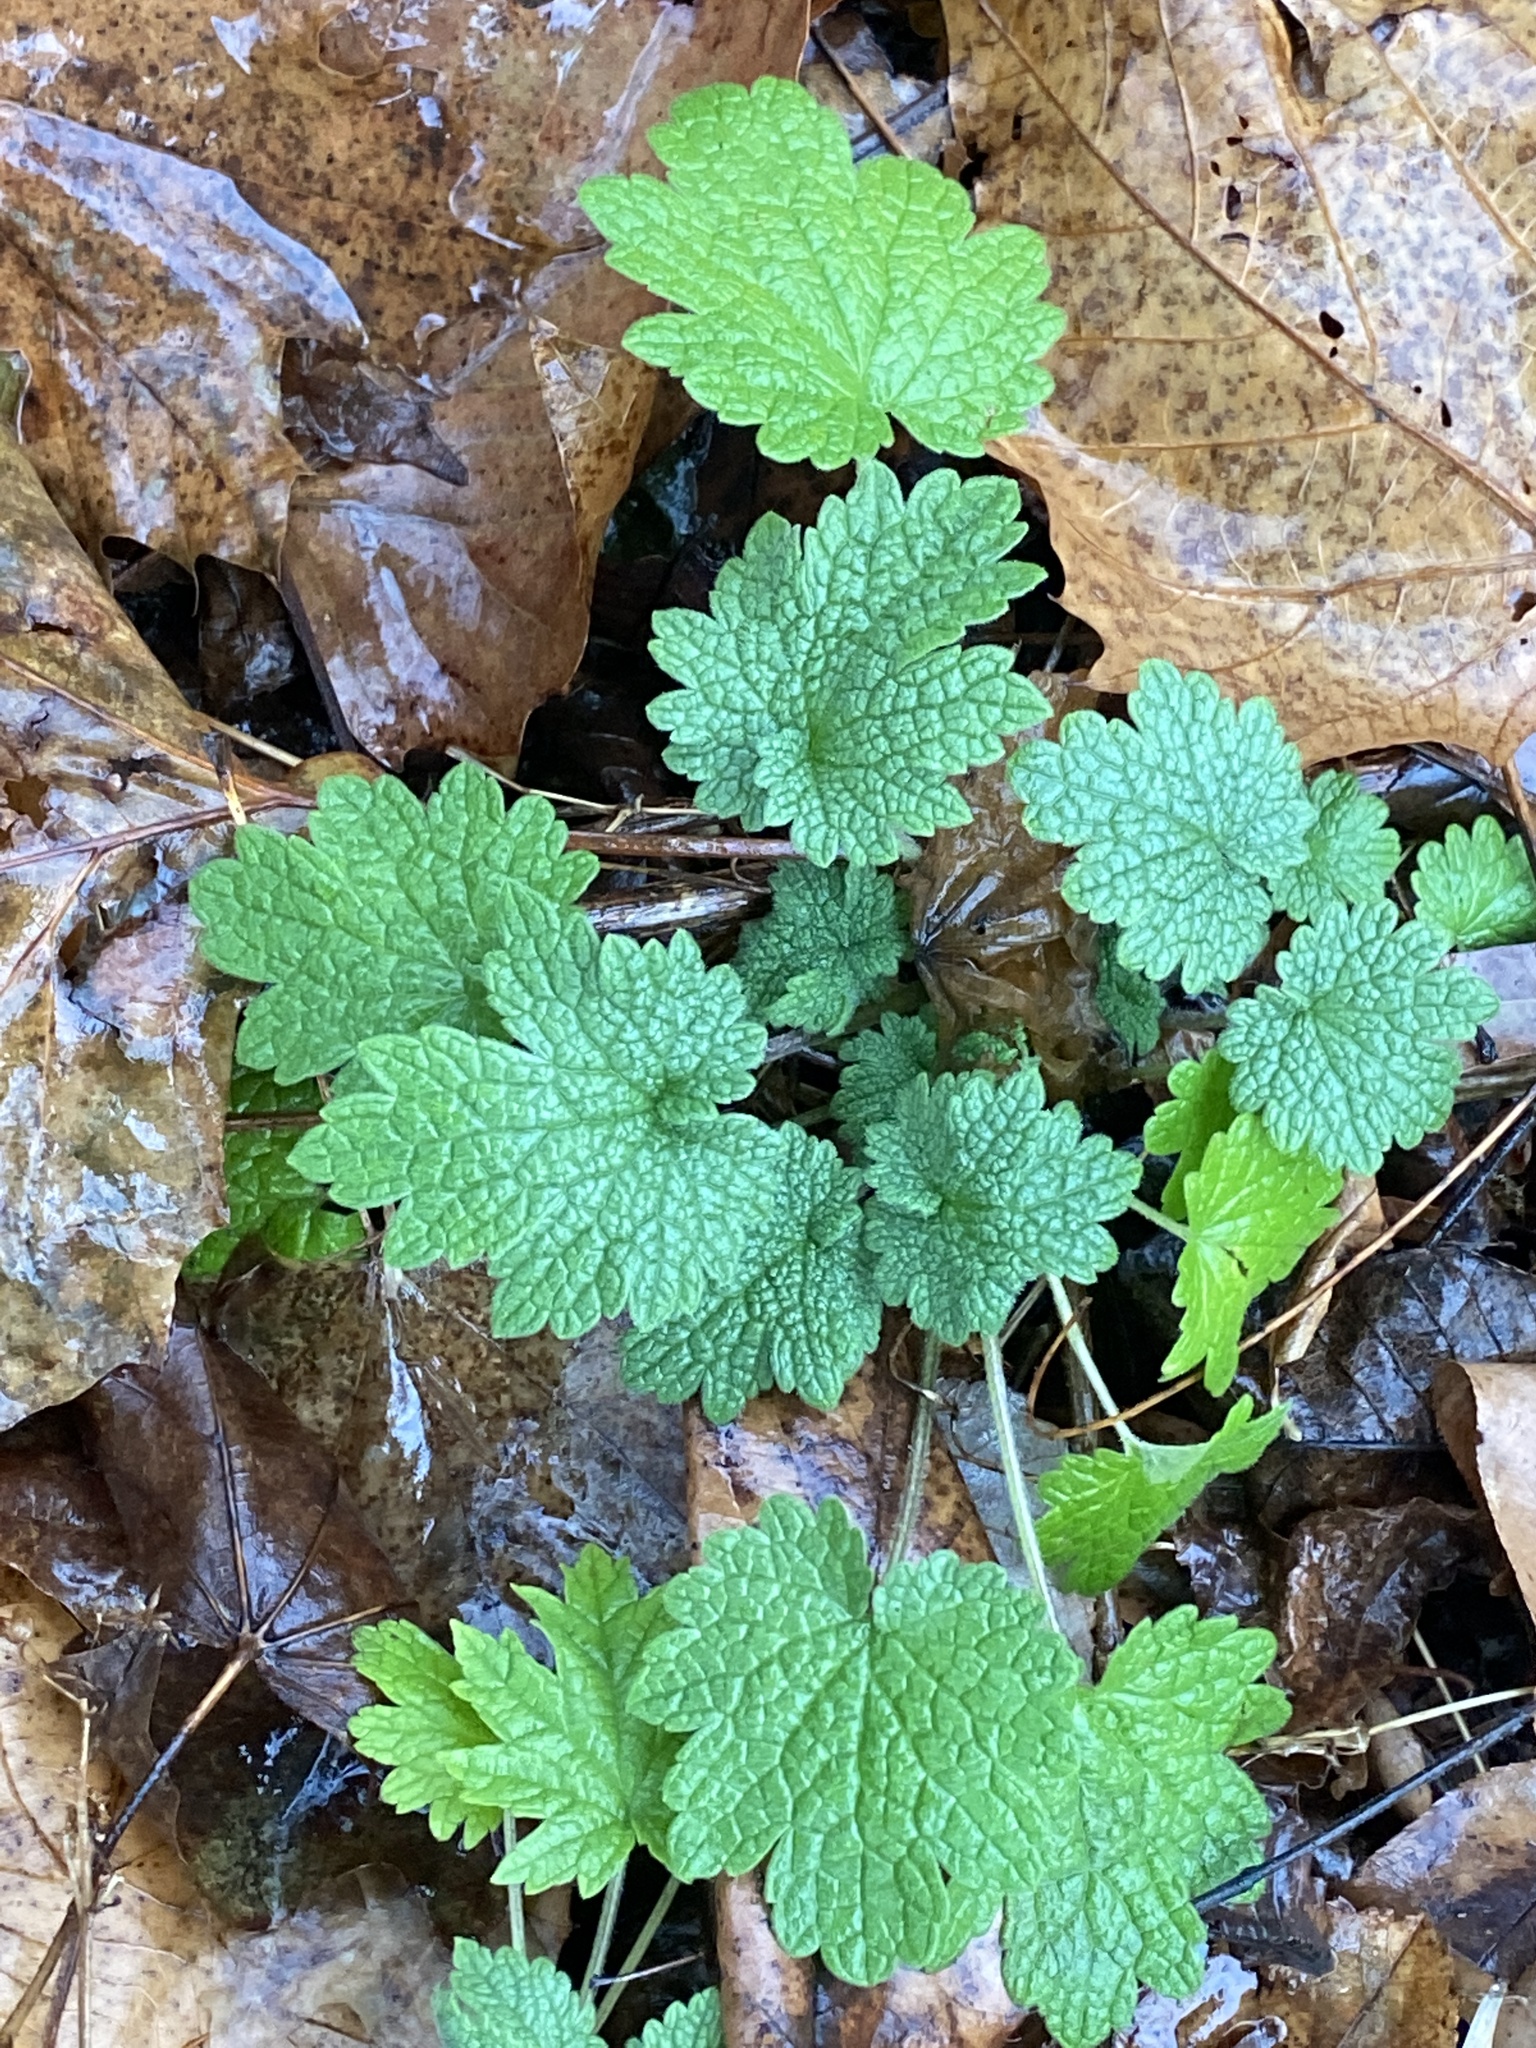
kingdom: Plantae
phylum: Tracheophyta
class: Magnoliopsida
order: Lamiales
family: Lamiaceae
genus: Leonurus
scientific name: Leonurus cardiaca
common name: Motherwort
